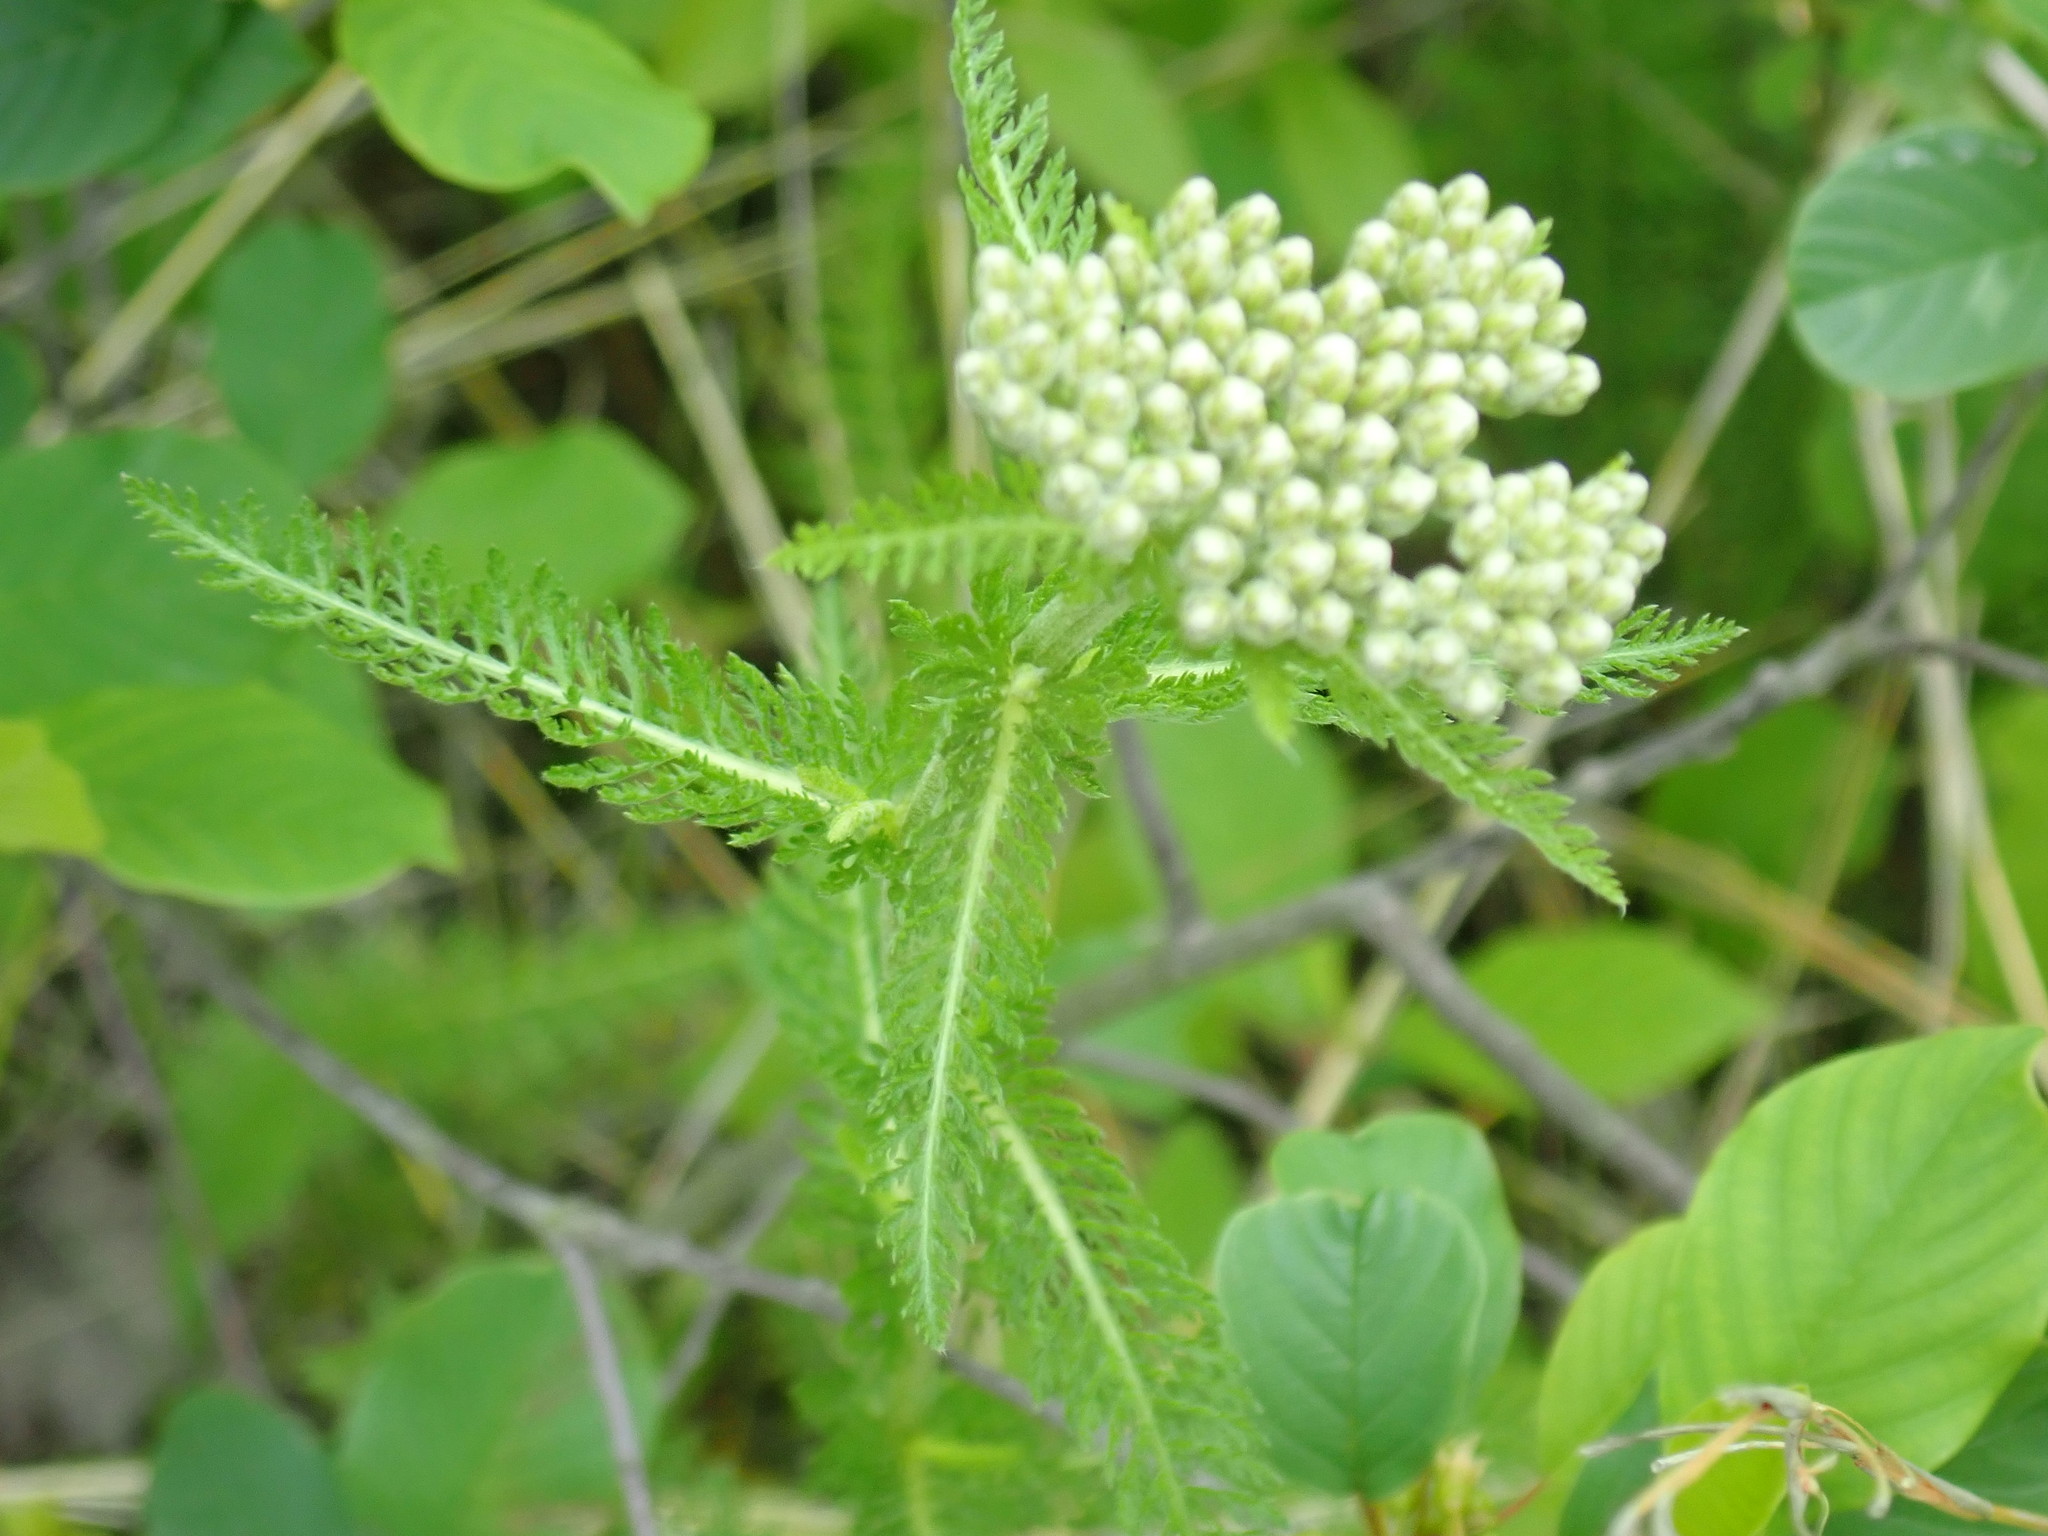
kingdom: Plantae
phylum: Tracheophyta
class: Magnoliopsida
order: Asterales
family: Asteraceae
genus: Achillea
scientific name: Achillea millefolium
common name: Yarrow
